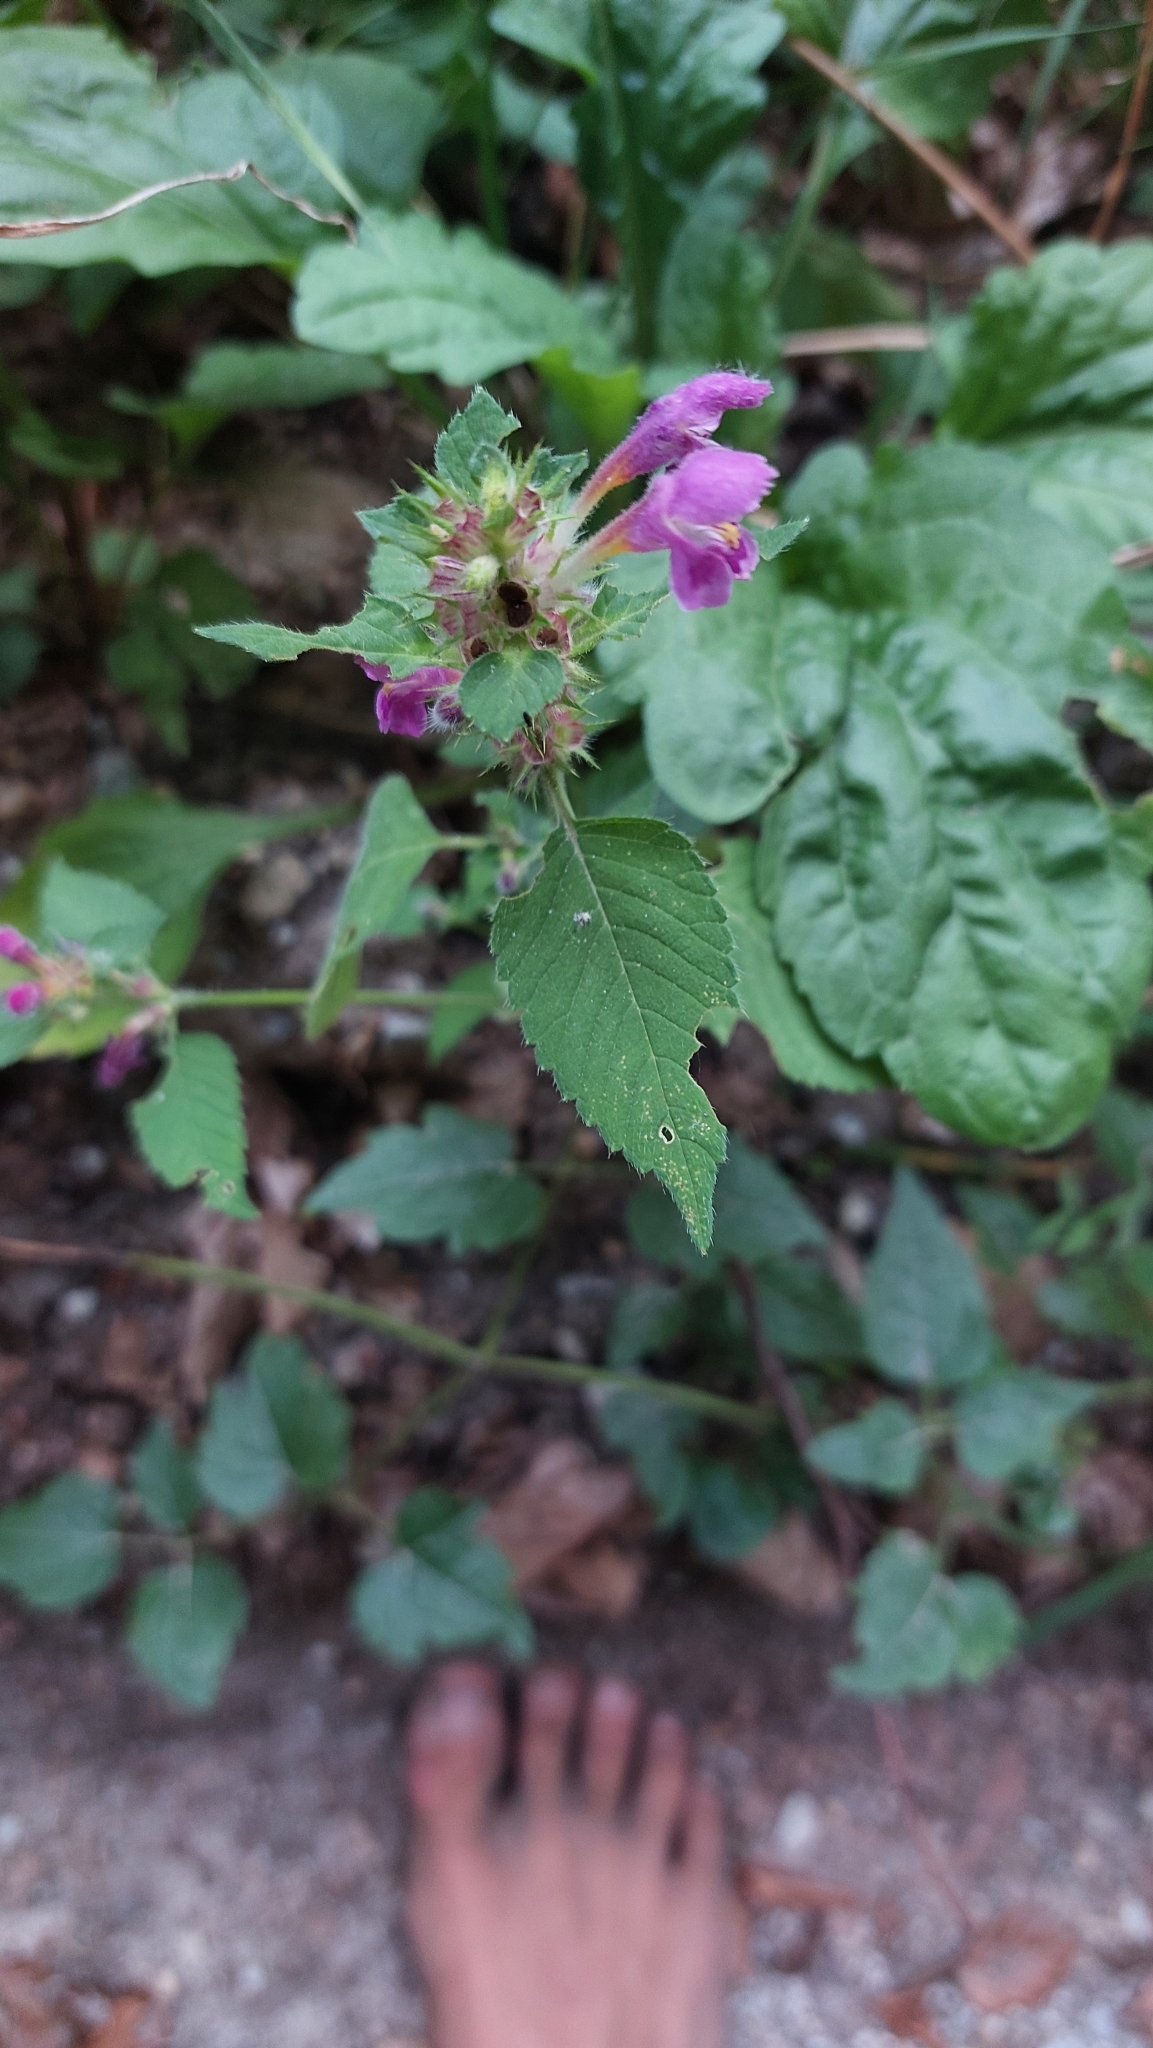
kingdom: Plantae
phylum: Tracheophyta
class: Magnoliopsida
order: Lamiales
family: Lamiaceae
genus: Galeopsis
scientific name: Galeopsis pubescens
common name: Downy hemp-nettle
